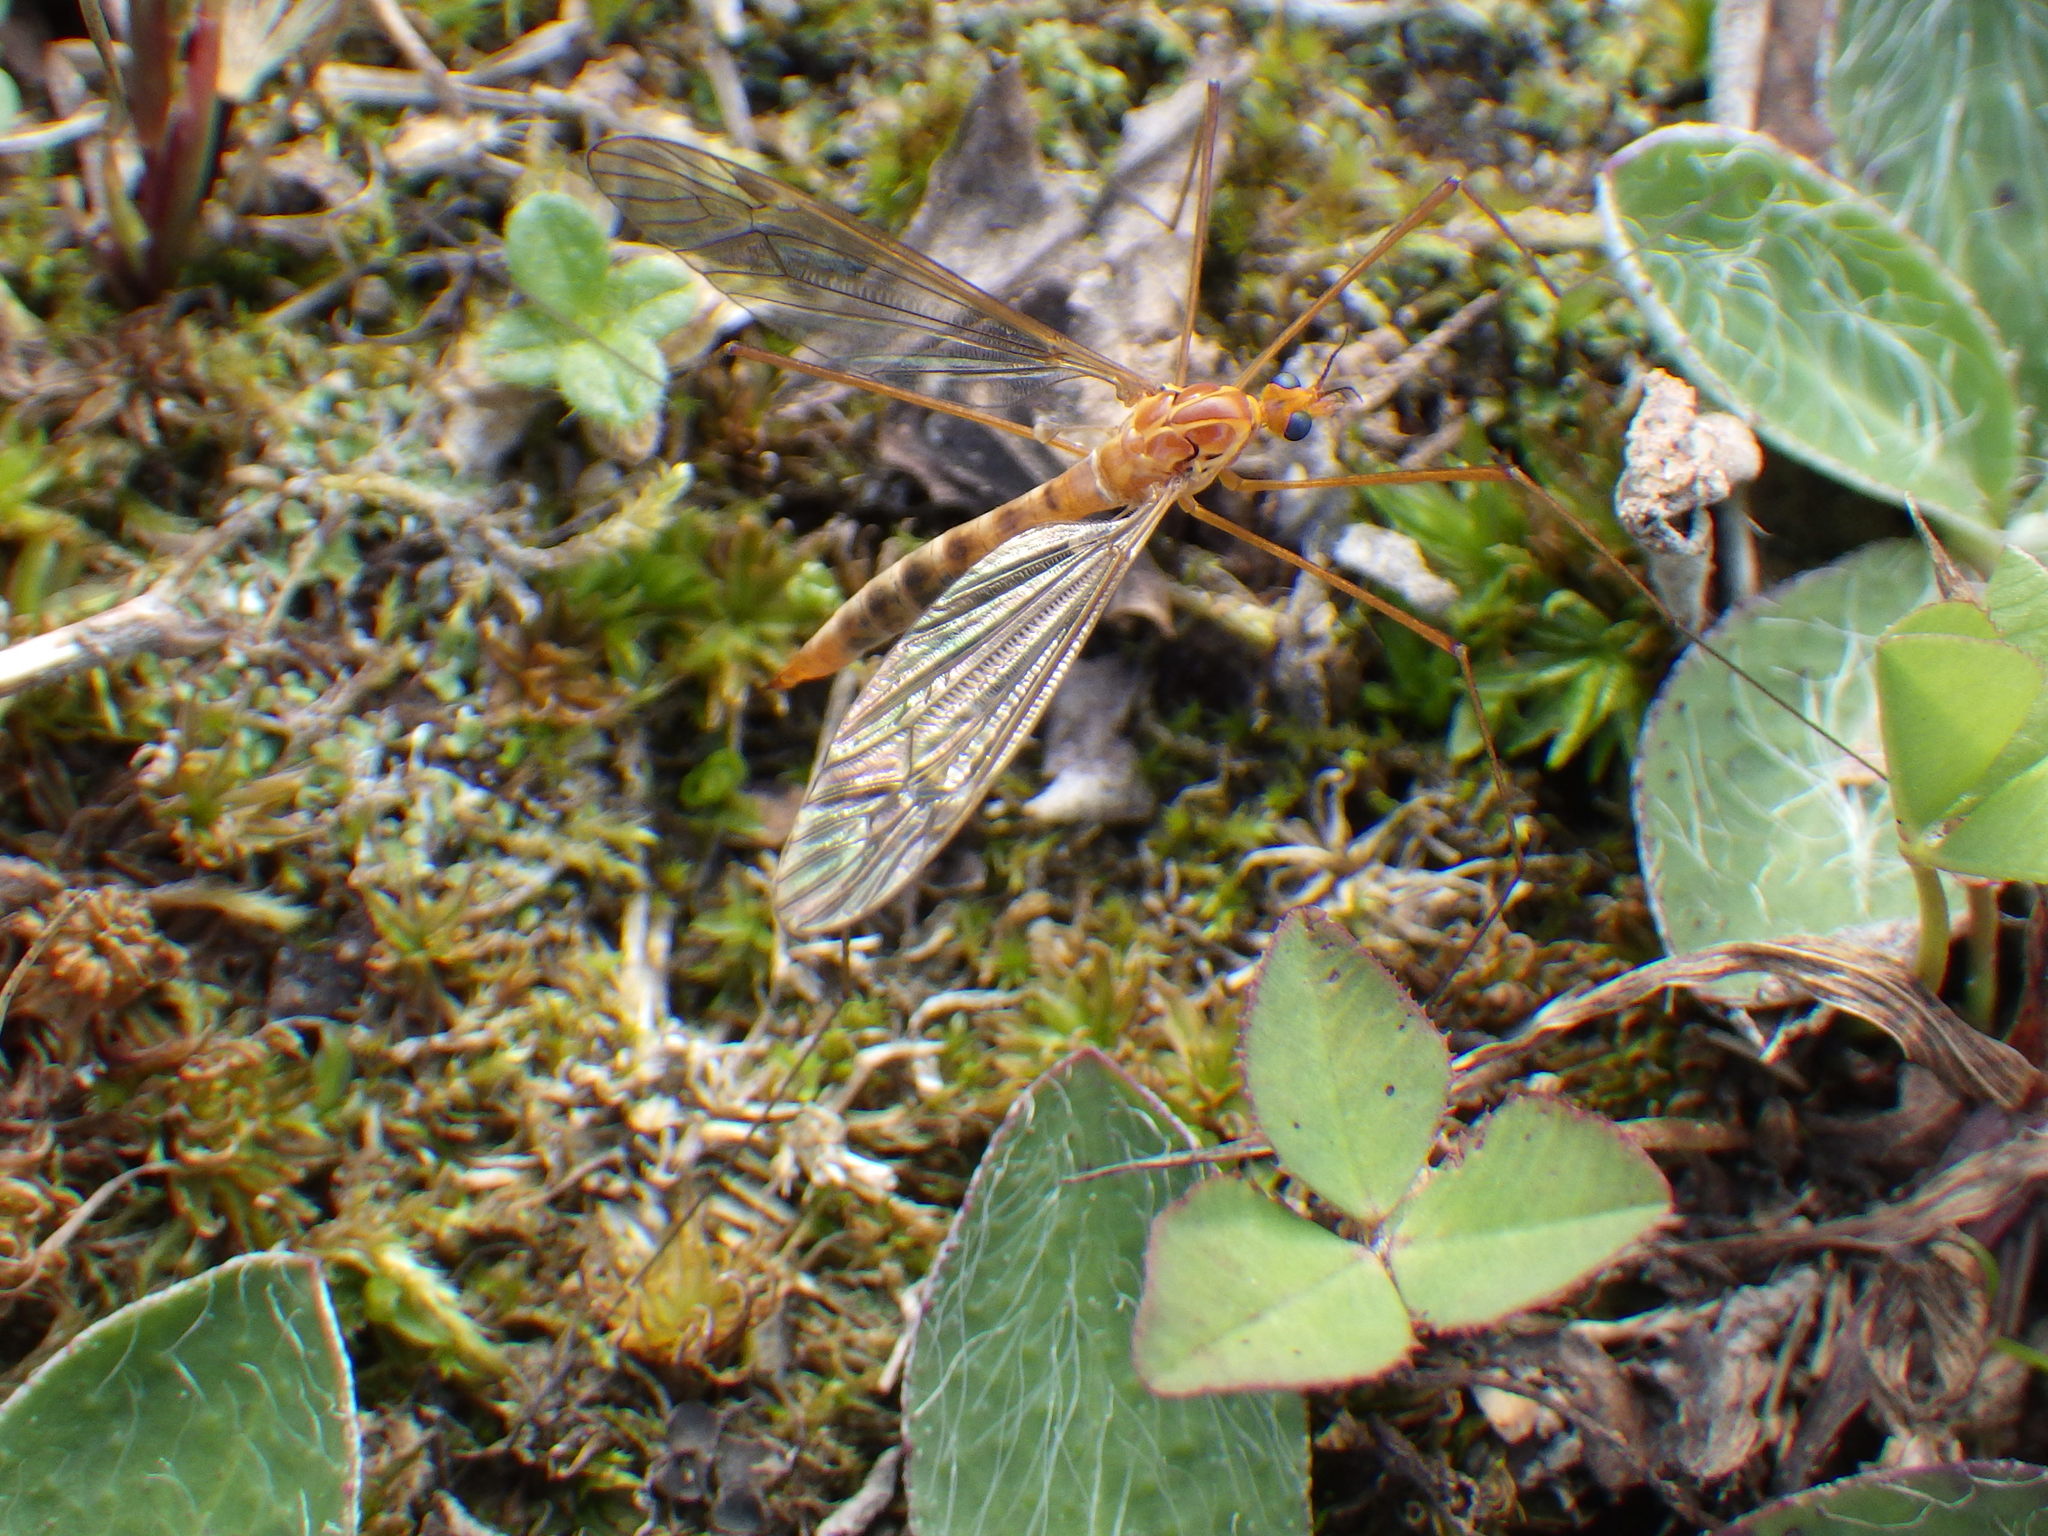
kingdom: Animalia
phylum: Arthropoda
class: Insecta
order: Diptera
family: Tipulidae
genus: Nephrotoma
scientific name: Nephrotoma ferruginea
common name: Ferruginous tiger crane fly
